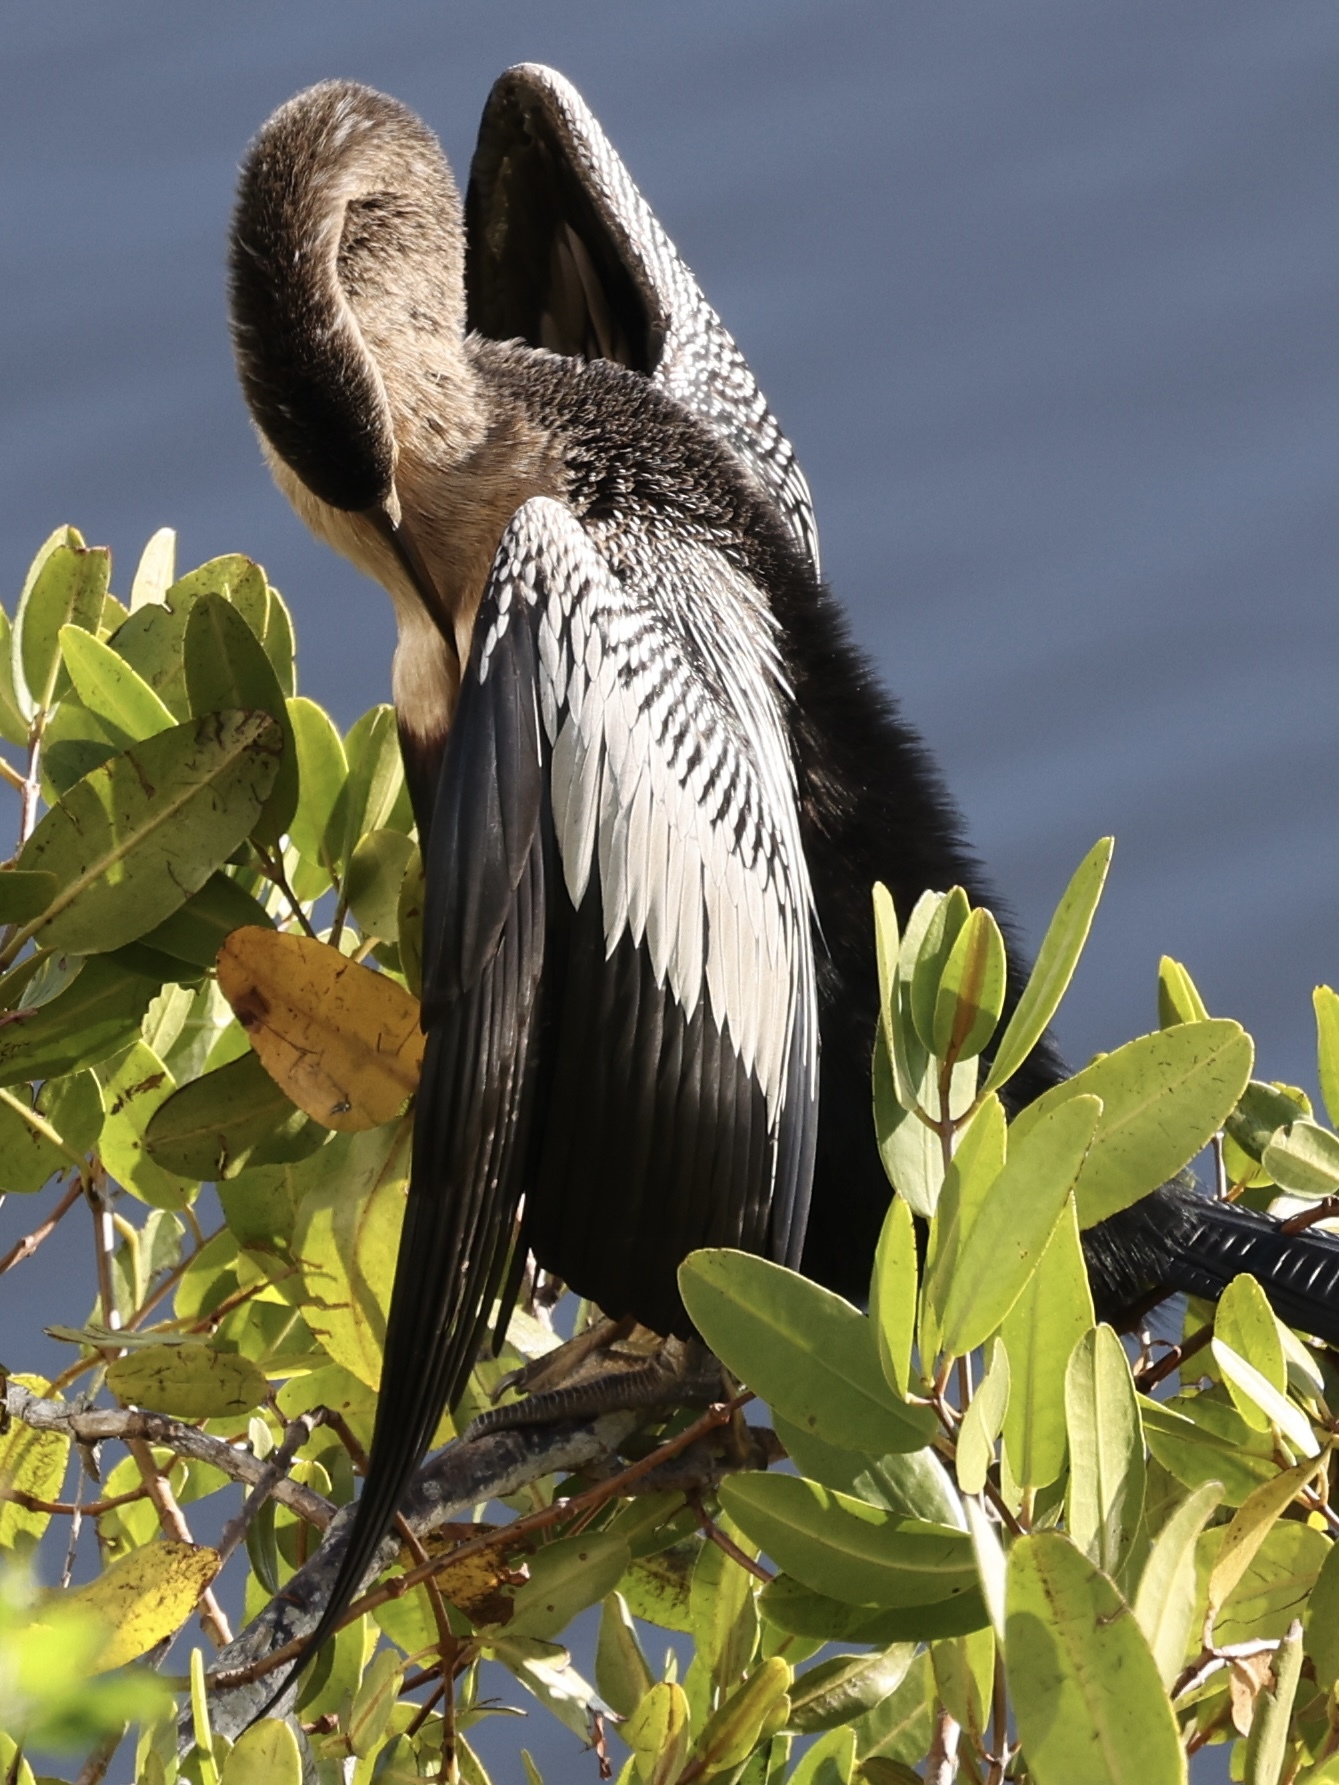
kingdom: Animalia
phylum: Chordata
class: Aves
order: Suliformes
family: Anhingidae
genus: Anhinga
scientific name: Anhinga anhinga
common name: Anhinga
